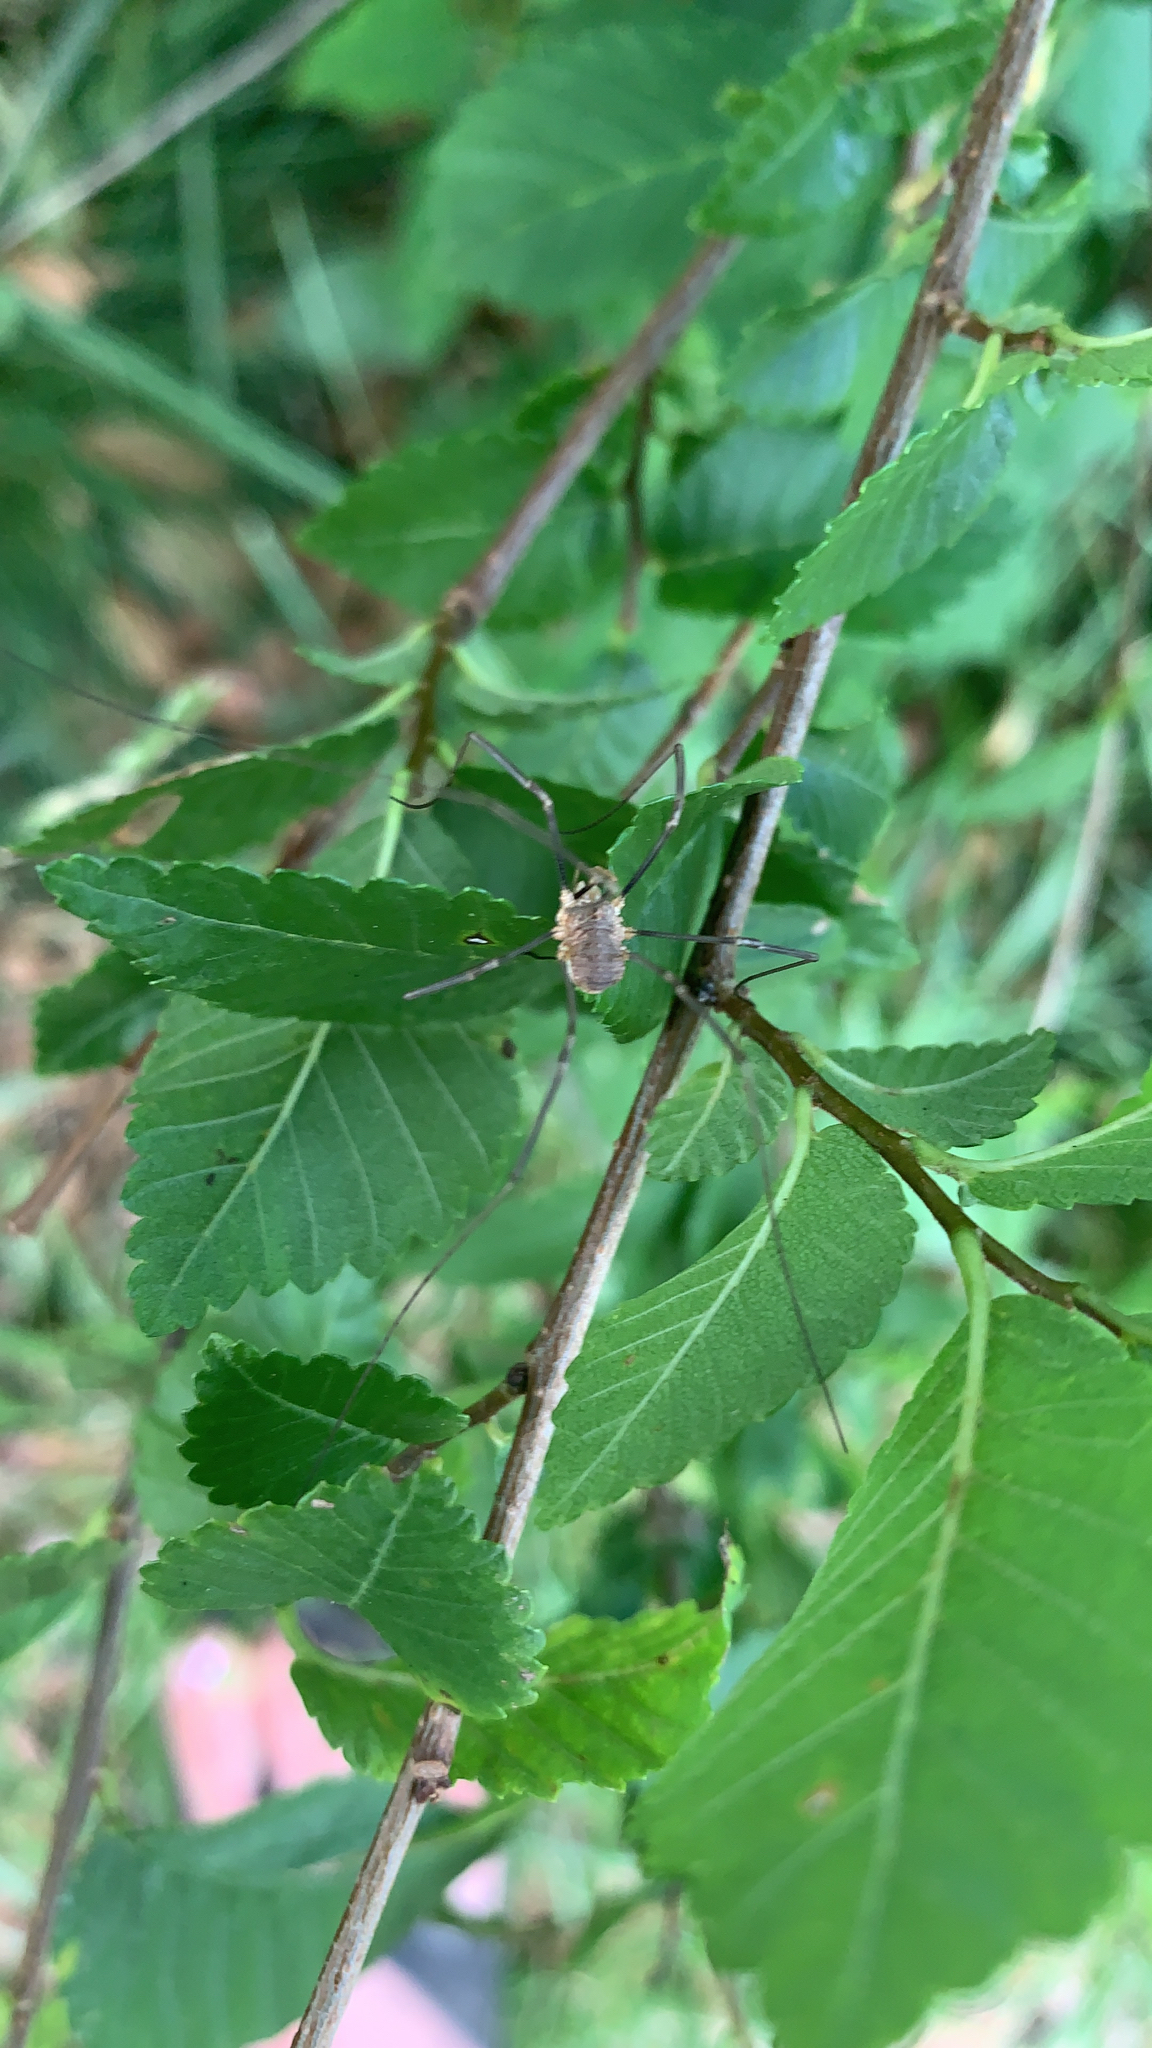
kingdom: Animalia
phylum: Arthropoda
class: Arachnida
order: Opiliones
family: Phalangiidae
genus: Phalangium
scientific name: Phalangium opilio
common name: Daddy longleg
